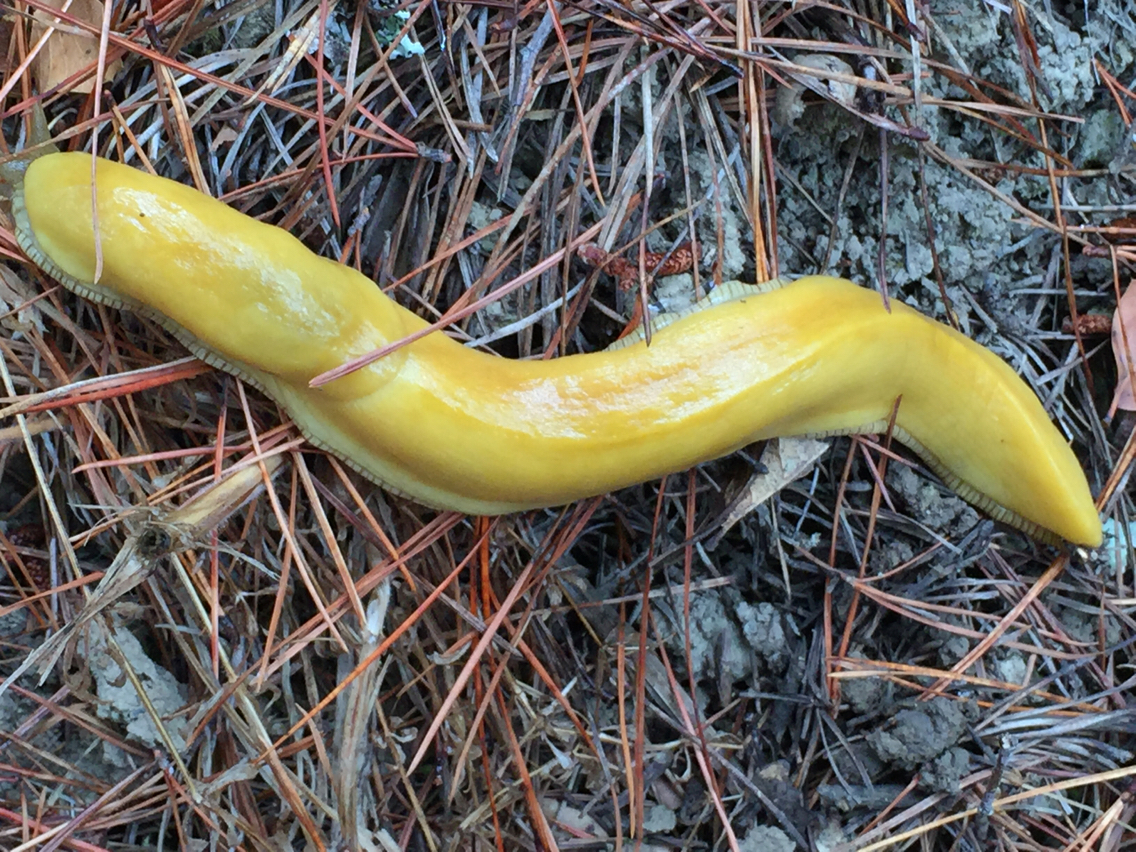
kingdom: Animalia
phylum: Mollusca
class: Gastropoda
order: Stylommatophora
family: Ariolimacidae
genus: Ariolimax
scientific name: Ariolimax californicus
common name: California banana slug
